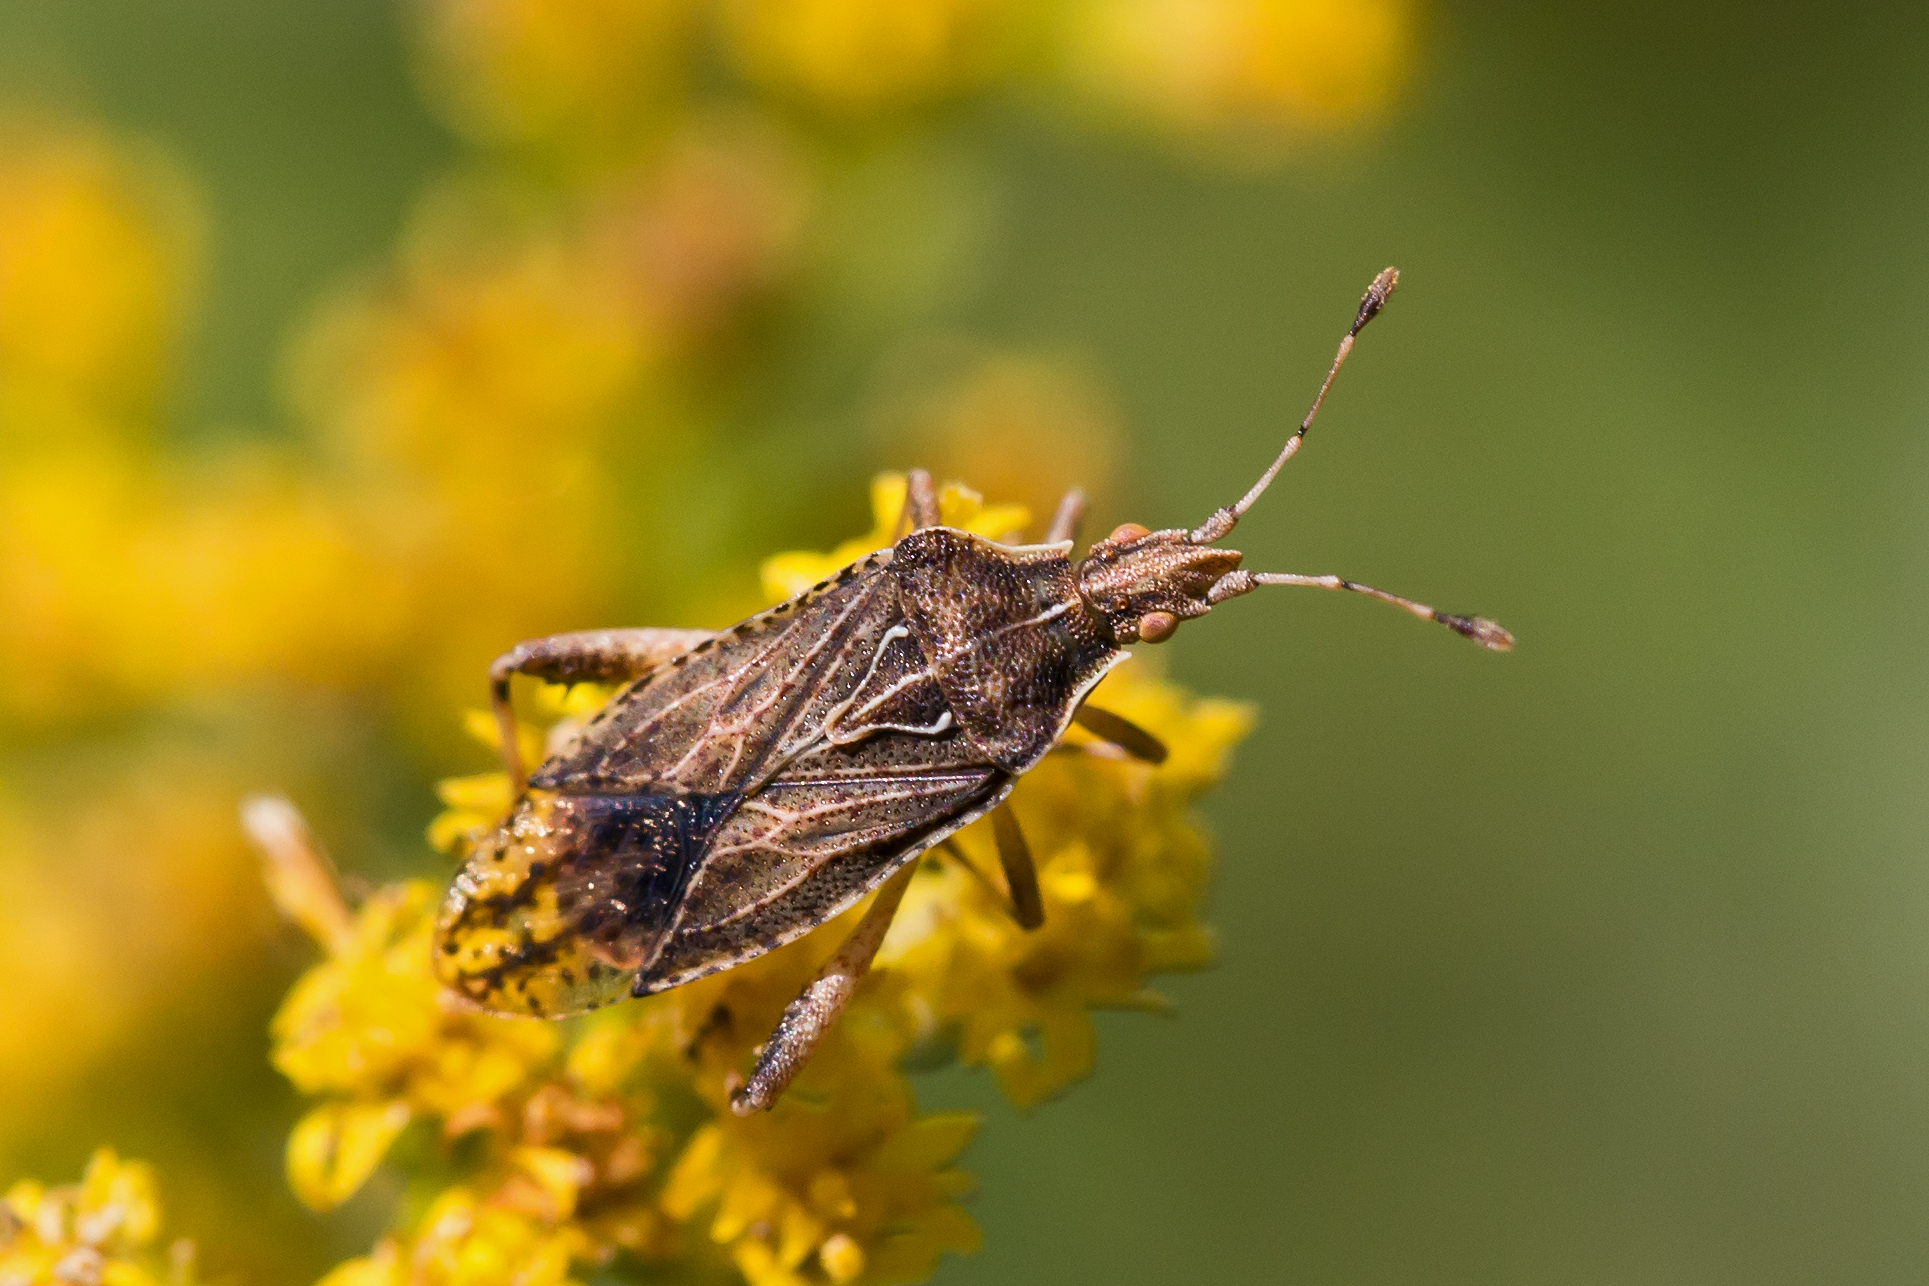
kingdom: Animalia
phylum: Arthropoda
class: Insecta
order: Hemiptera
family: Rhopalidae
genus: Harmostes
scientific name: Harmostes fraterculus
